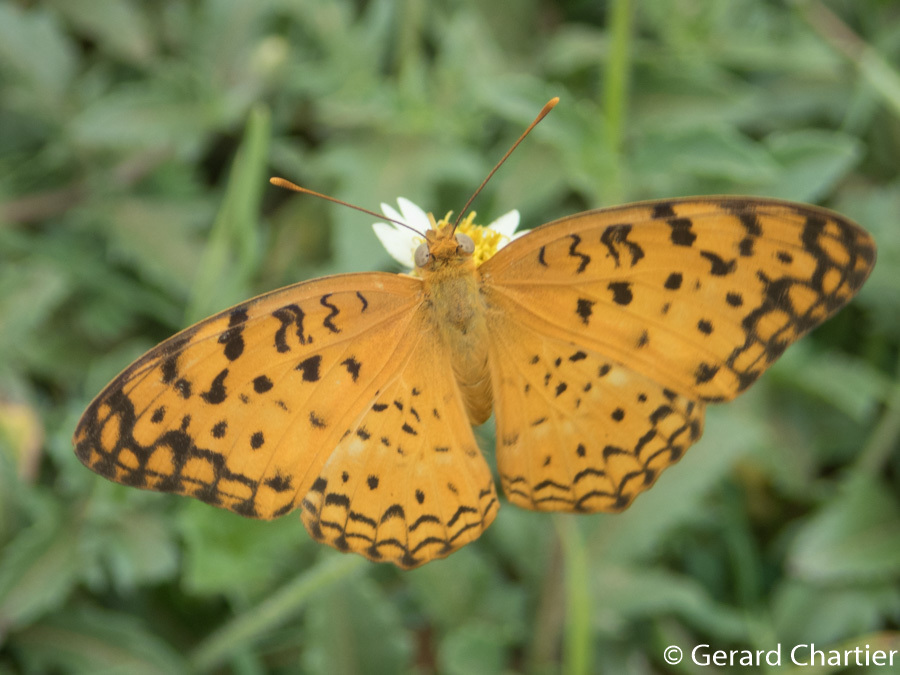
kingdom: Animalia
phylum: Arthropoda
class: Insecta
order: Lepidoptera
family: Nymphalidae
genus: Phalanta
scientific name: Phalanta phalantha
